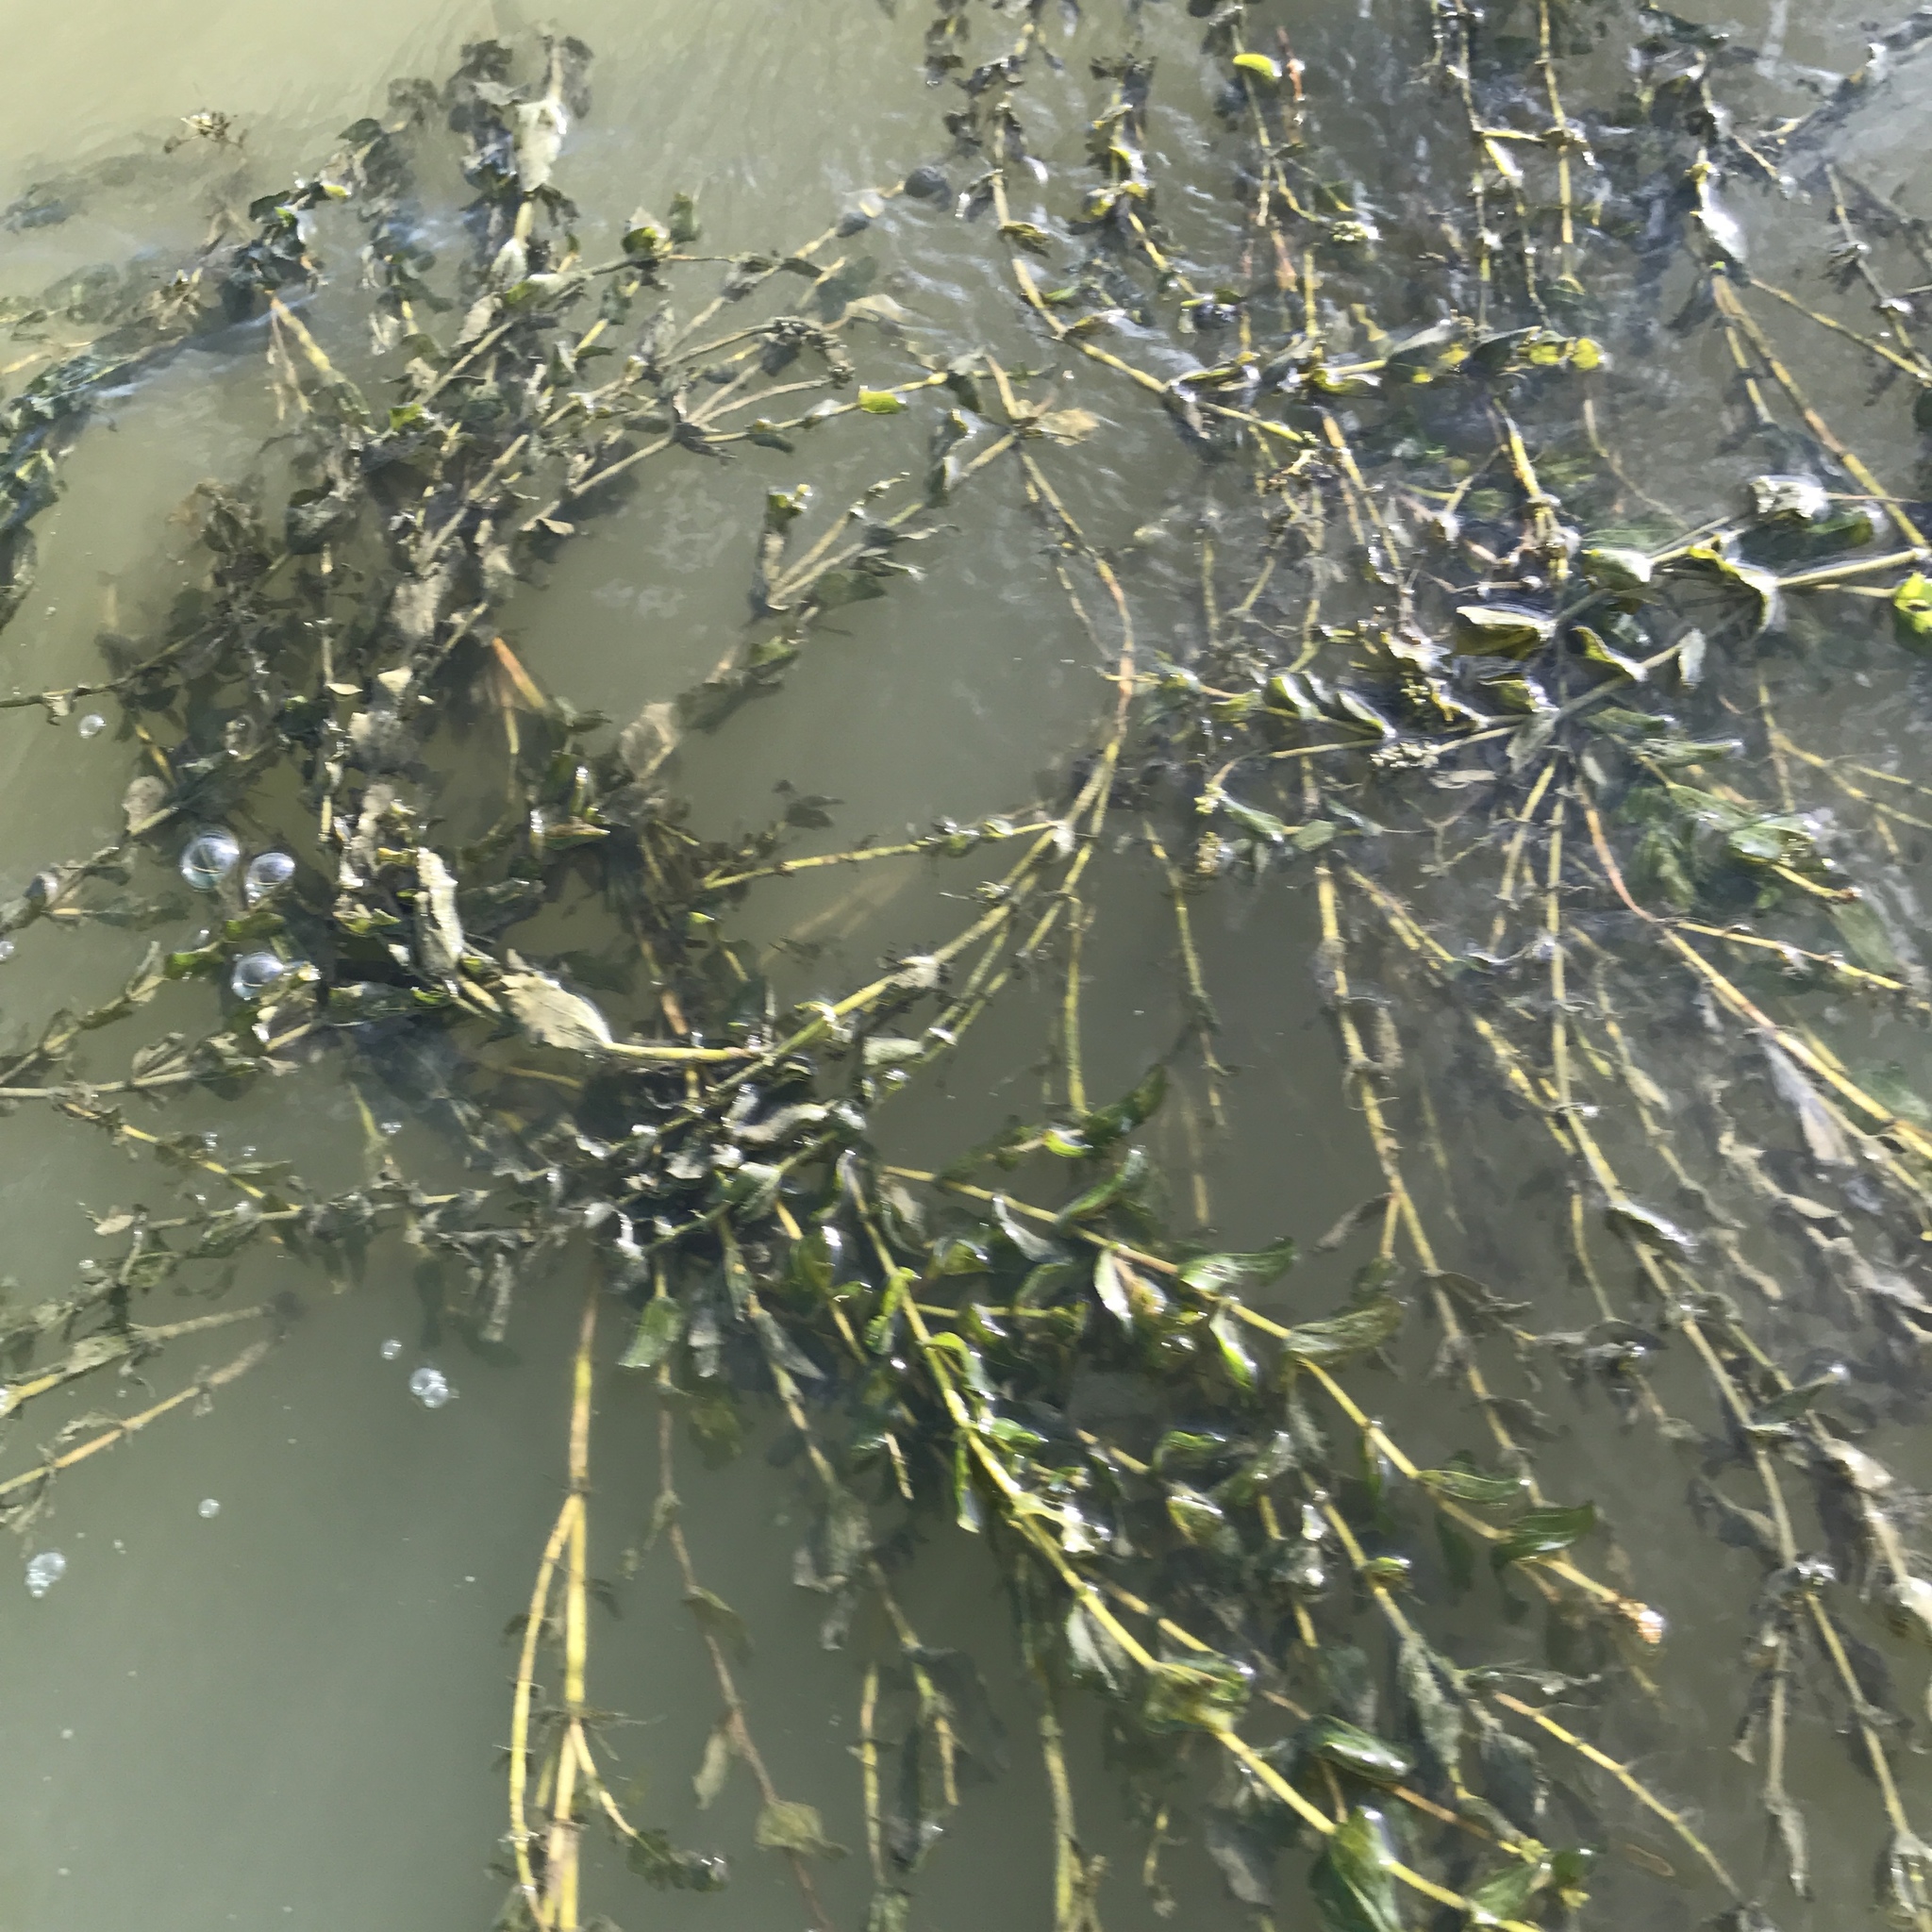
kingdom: Plantae
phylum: Tracheophyta
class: Liliopsida
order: Alismatales
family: Potamogetonaceae
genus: Potamogeton
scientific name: Potamogeton perfoliatus
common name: Perfoliate pondweed
